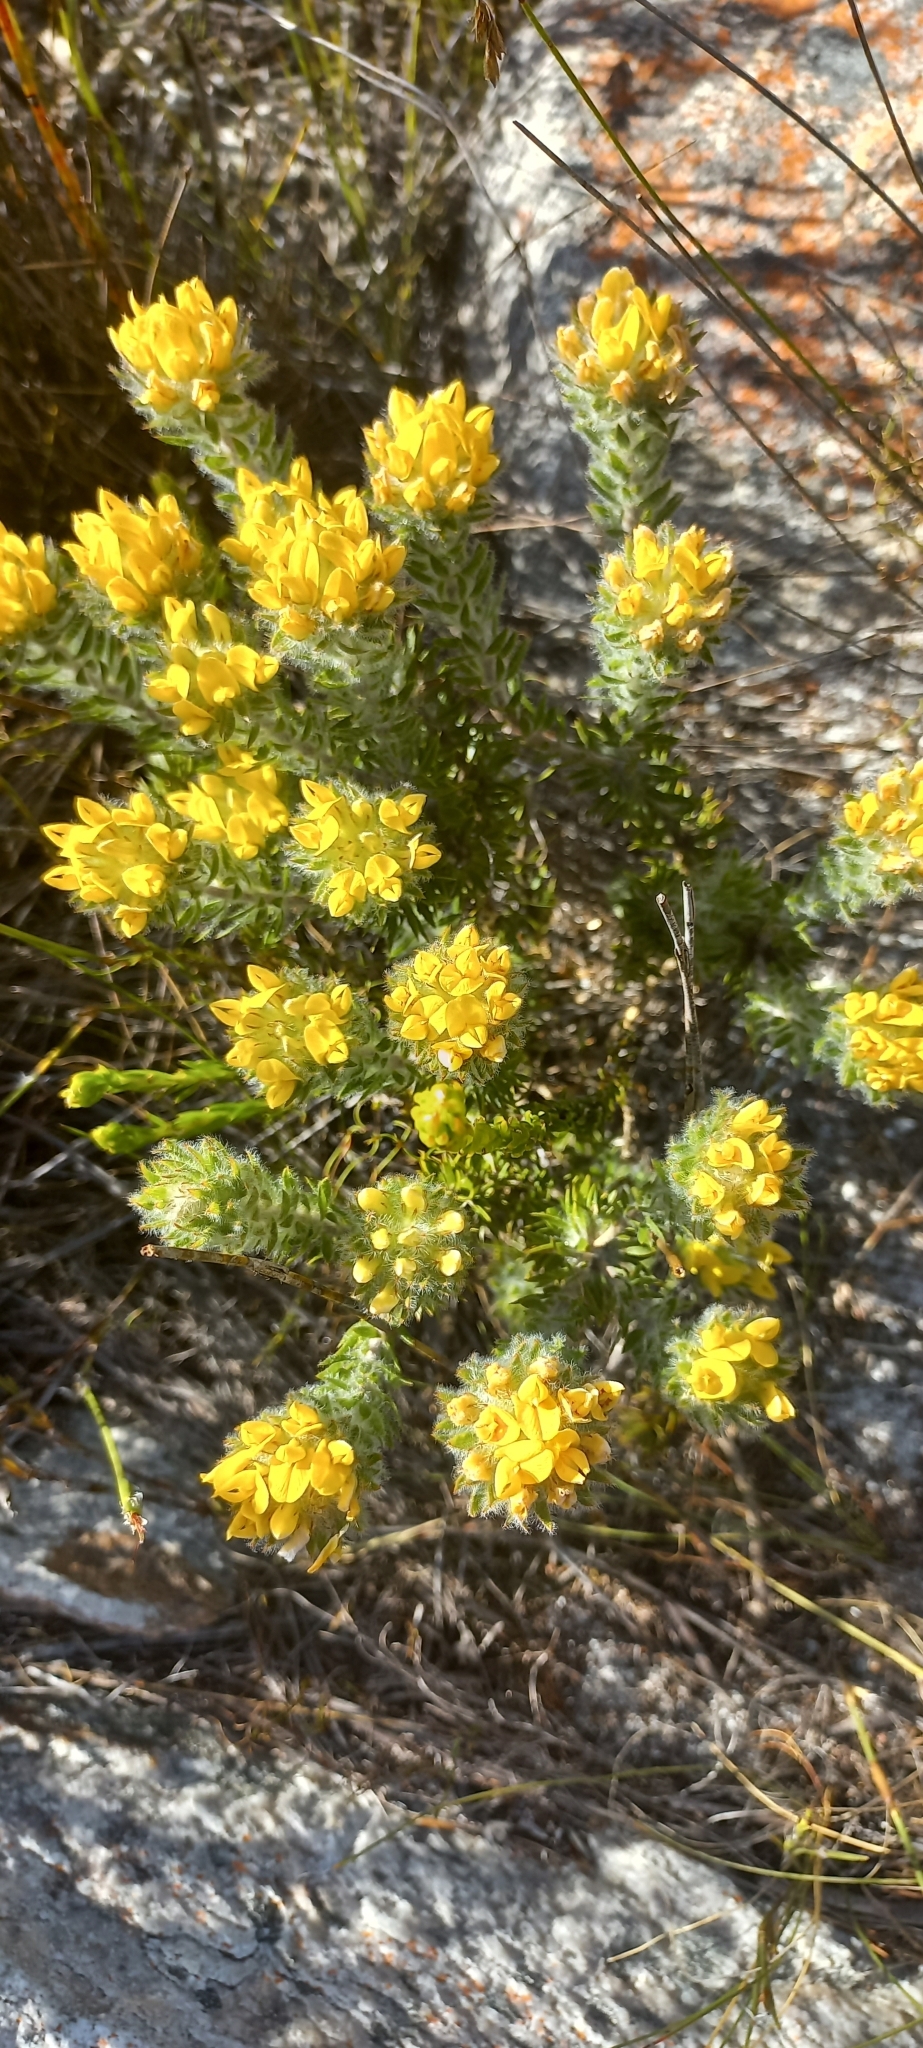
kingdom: Plantae
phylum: Tracheophyta
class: Magnoliopsida
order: Fabales
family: Fabaceae
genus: Aspalathus
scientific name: Aspalathus aspalathoides
